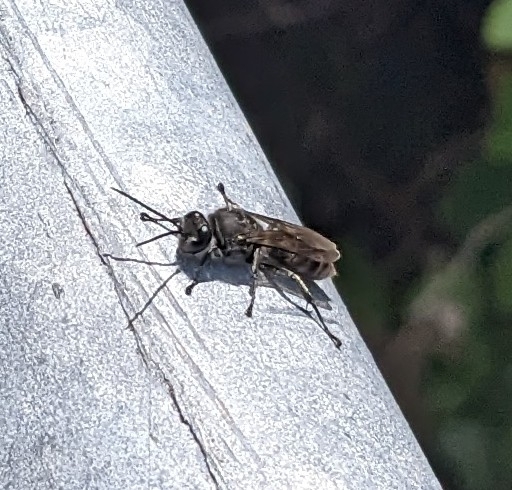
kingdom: Animalia
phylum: Arthropoda
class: Insecta
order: Hymenoptera
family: Crabronidae
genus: Pison
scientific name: Pison spinolae
